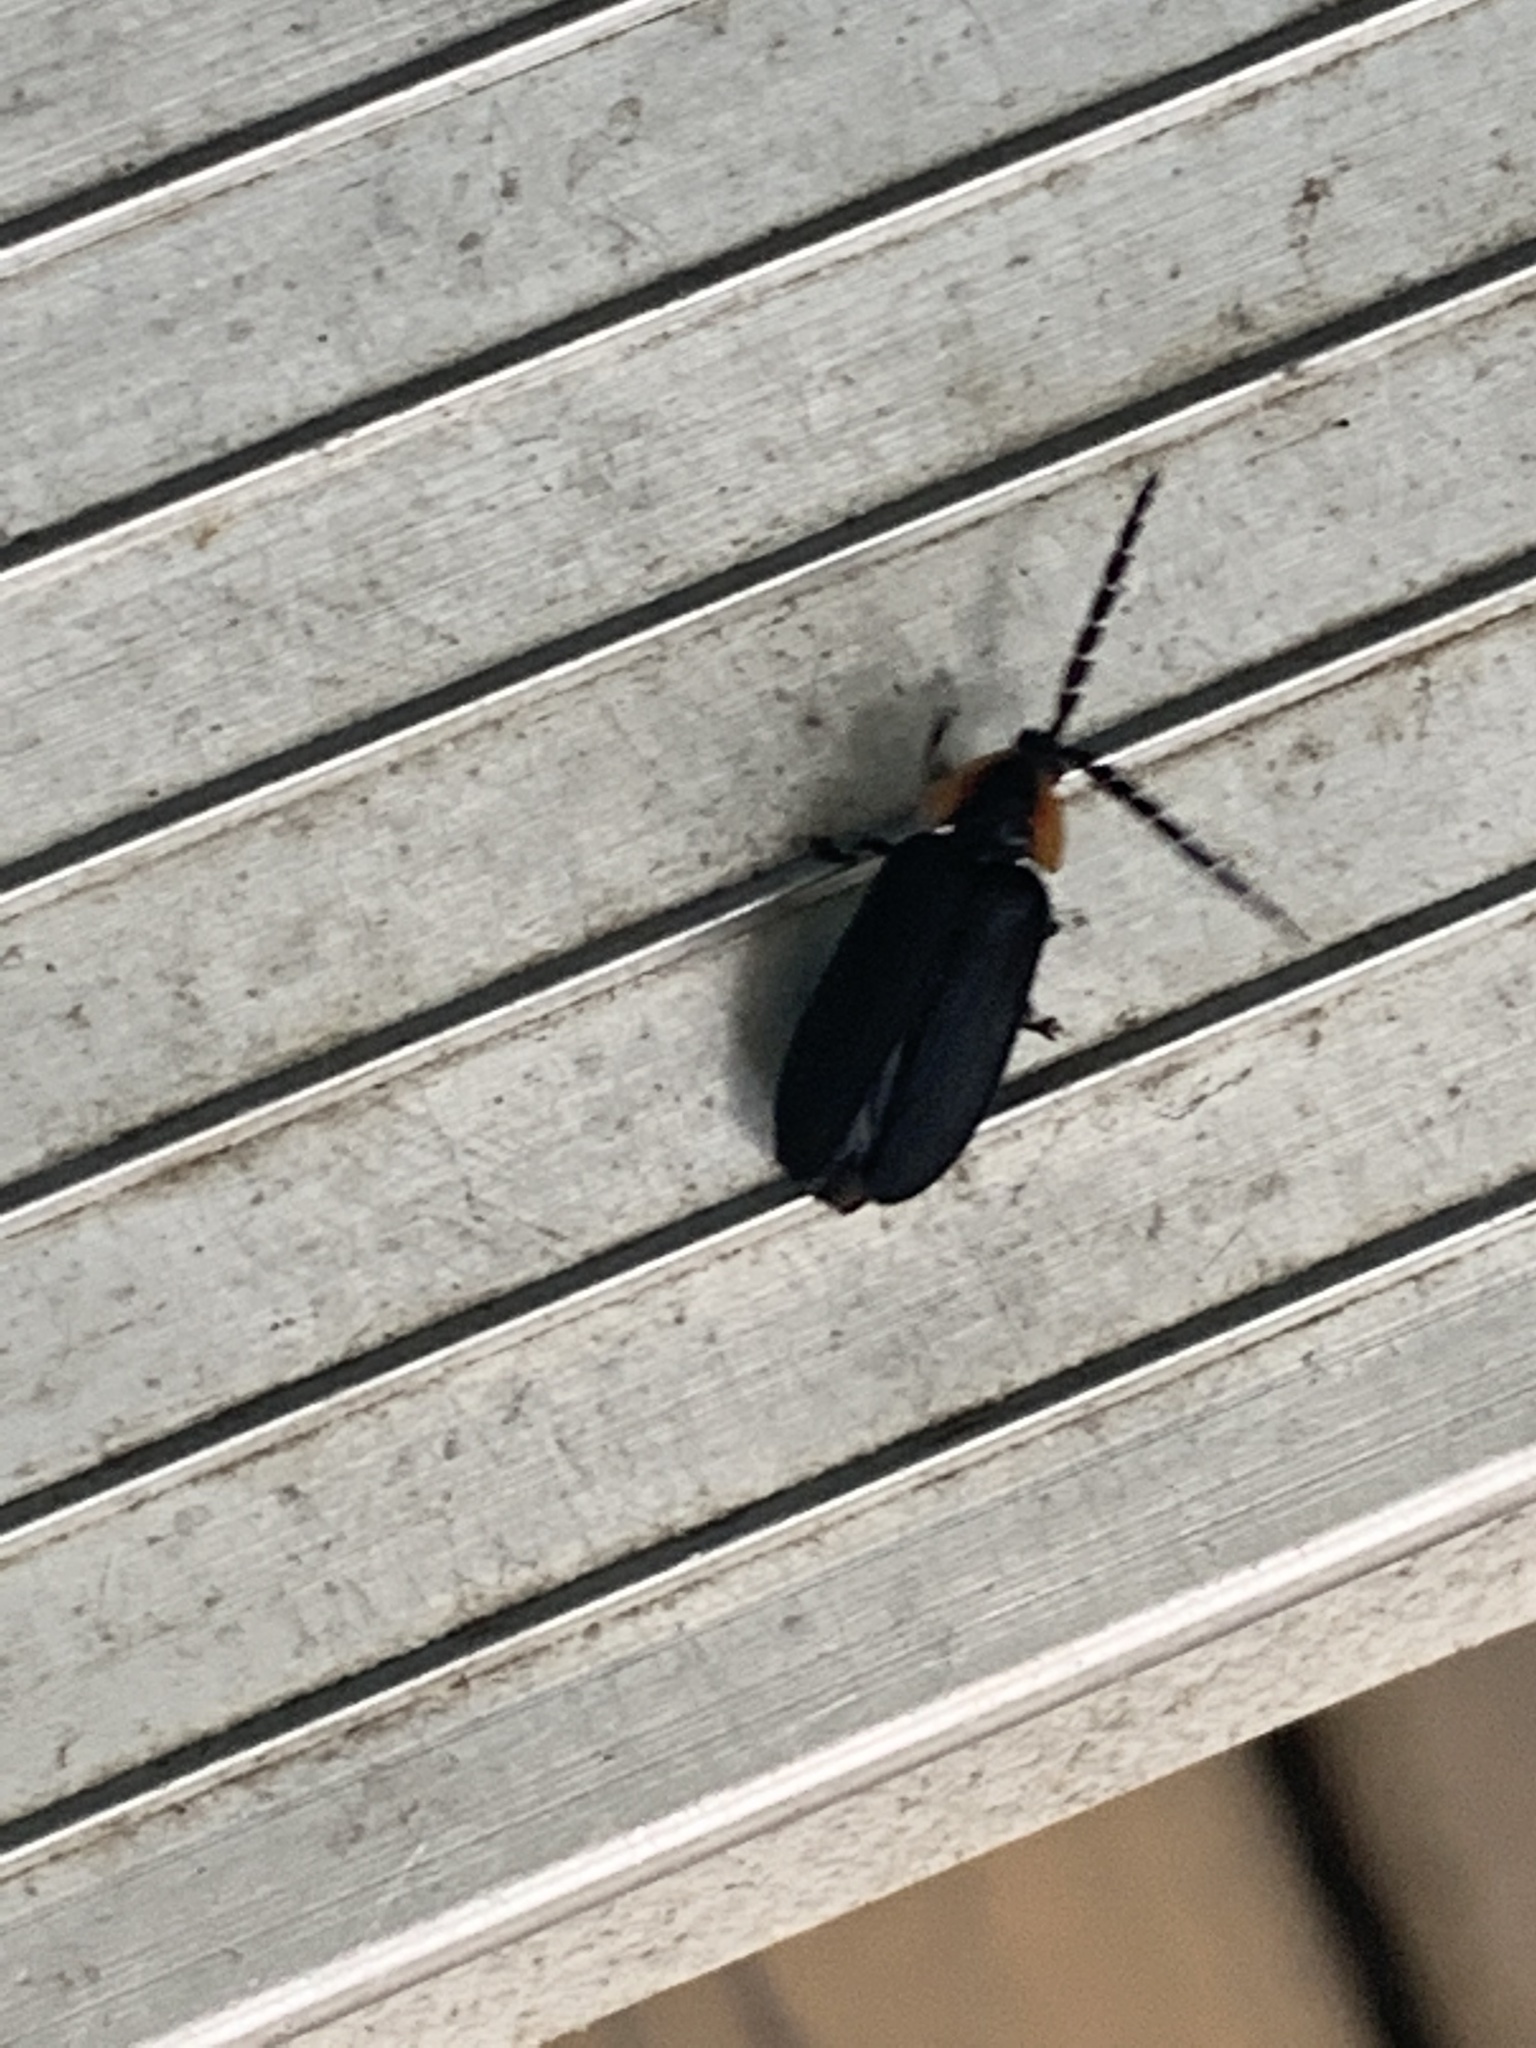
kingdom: Animalia
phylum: Arthropoda
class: Insecta
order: Coleoptera
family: Lampyridae
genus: Lucidota
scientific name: Lucidota atra
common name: Black firefly
